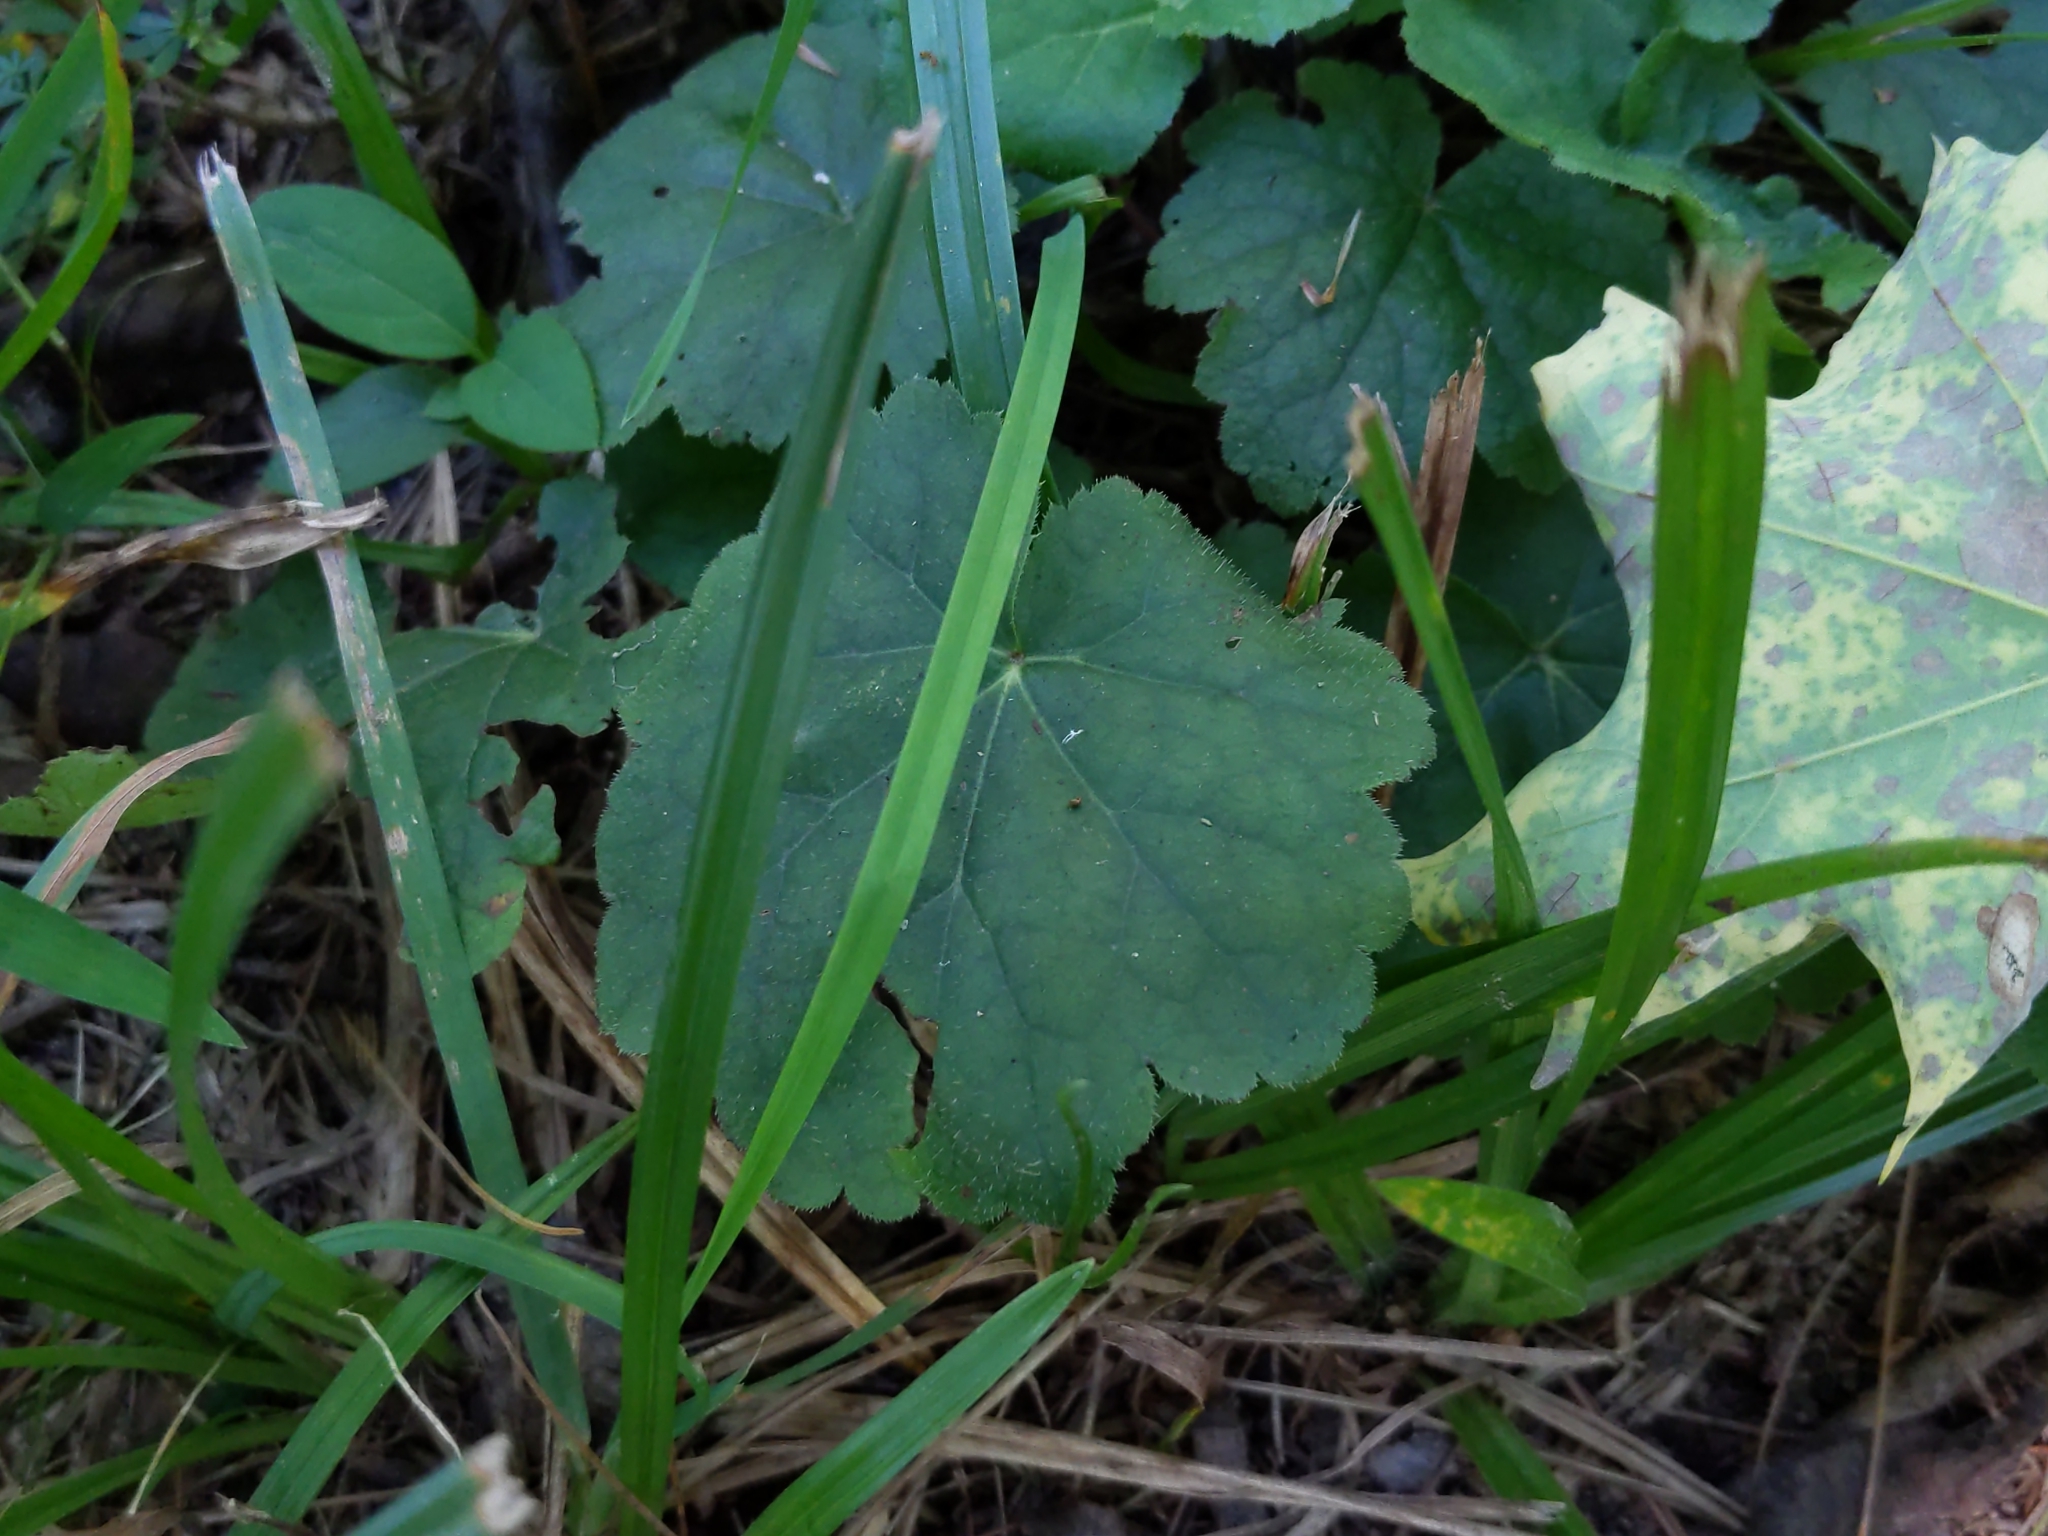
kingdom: Plantae
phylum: Tracheophyta
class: Magnoliopsida
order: Saxifragales
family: Saxifragaceae
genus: Tiarella
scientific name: Tiarella stolonifera
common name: Stoloniferous foamflower
